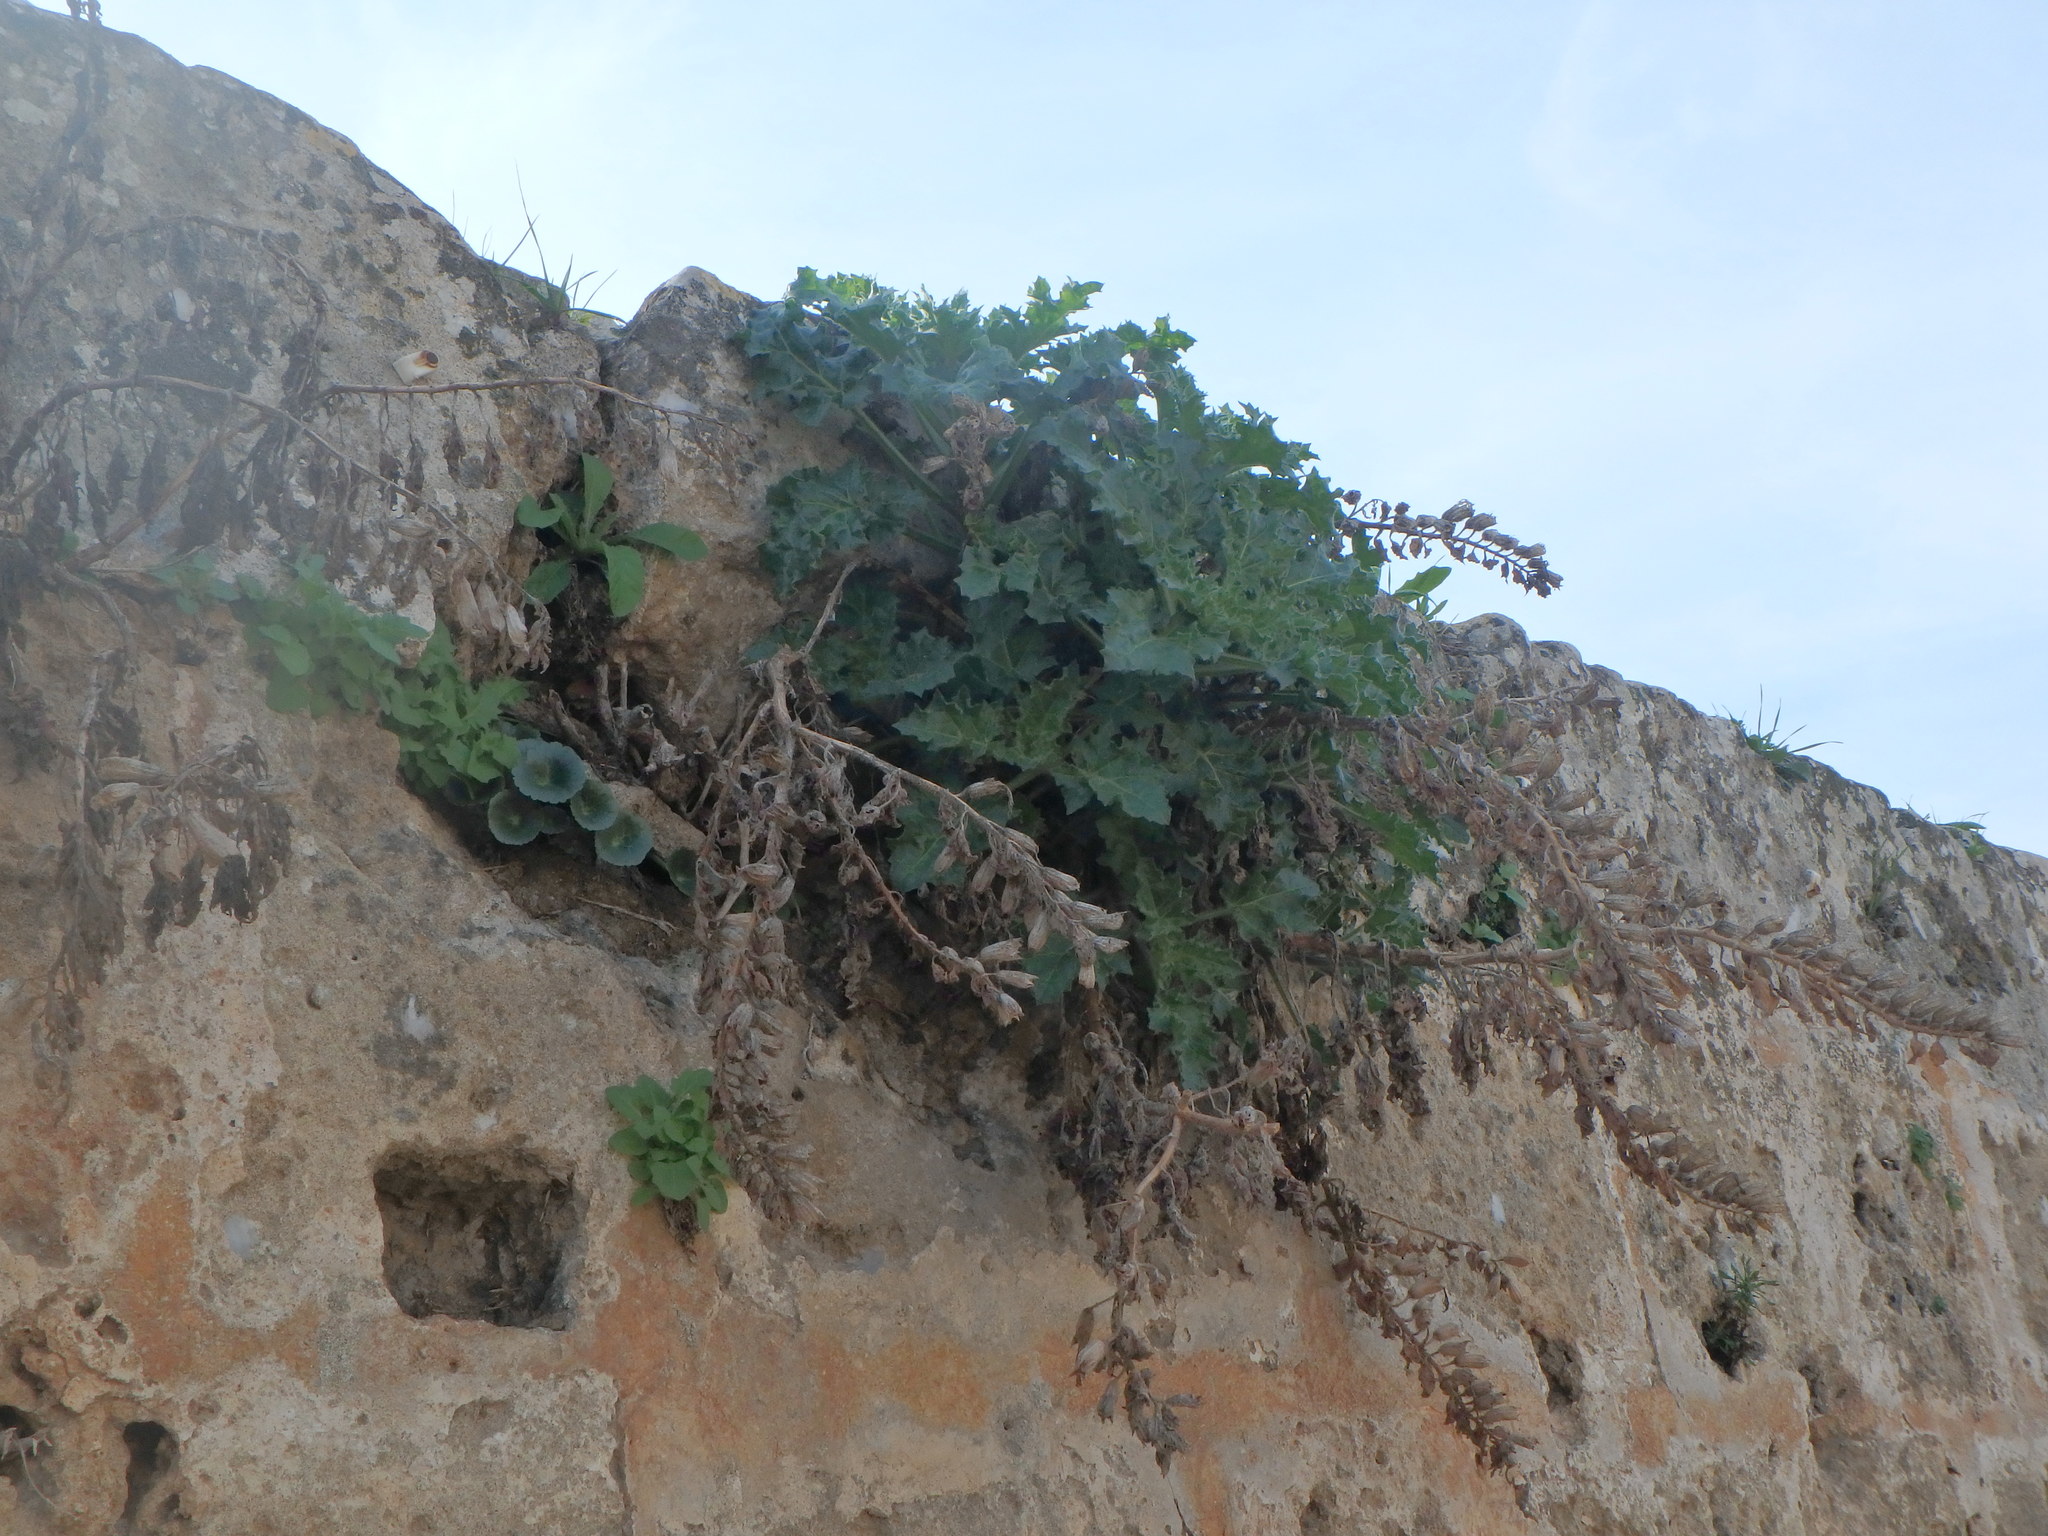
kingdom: Plantae
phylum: Tracheophyta
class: Magnoliopsida
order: Solanales
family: Solanaceae
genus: Hyoscyamus
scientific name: Hyoscyamus aureus
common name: Golden henbane
